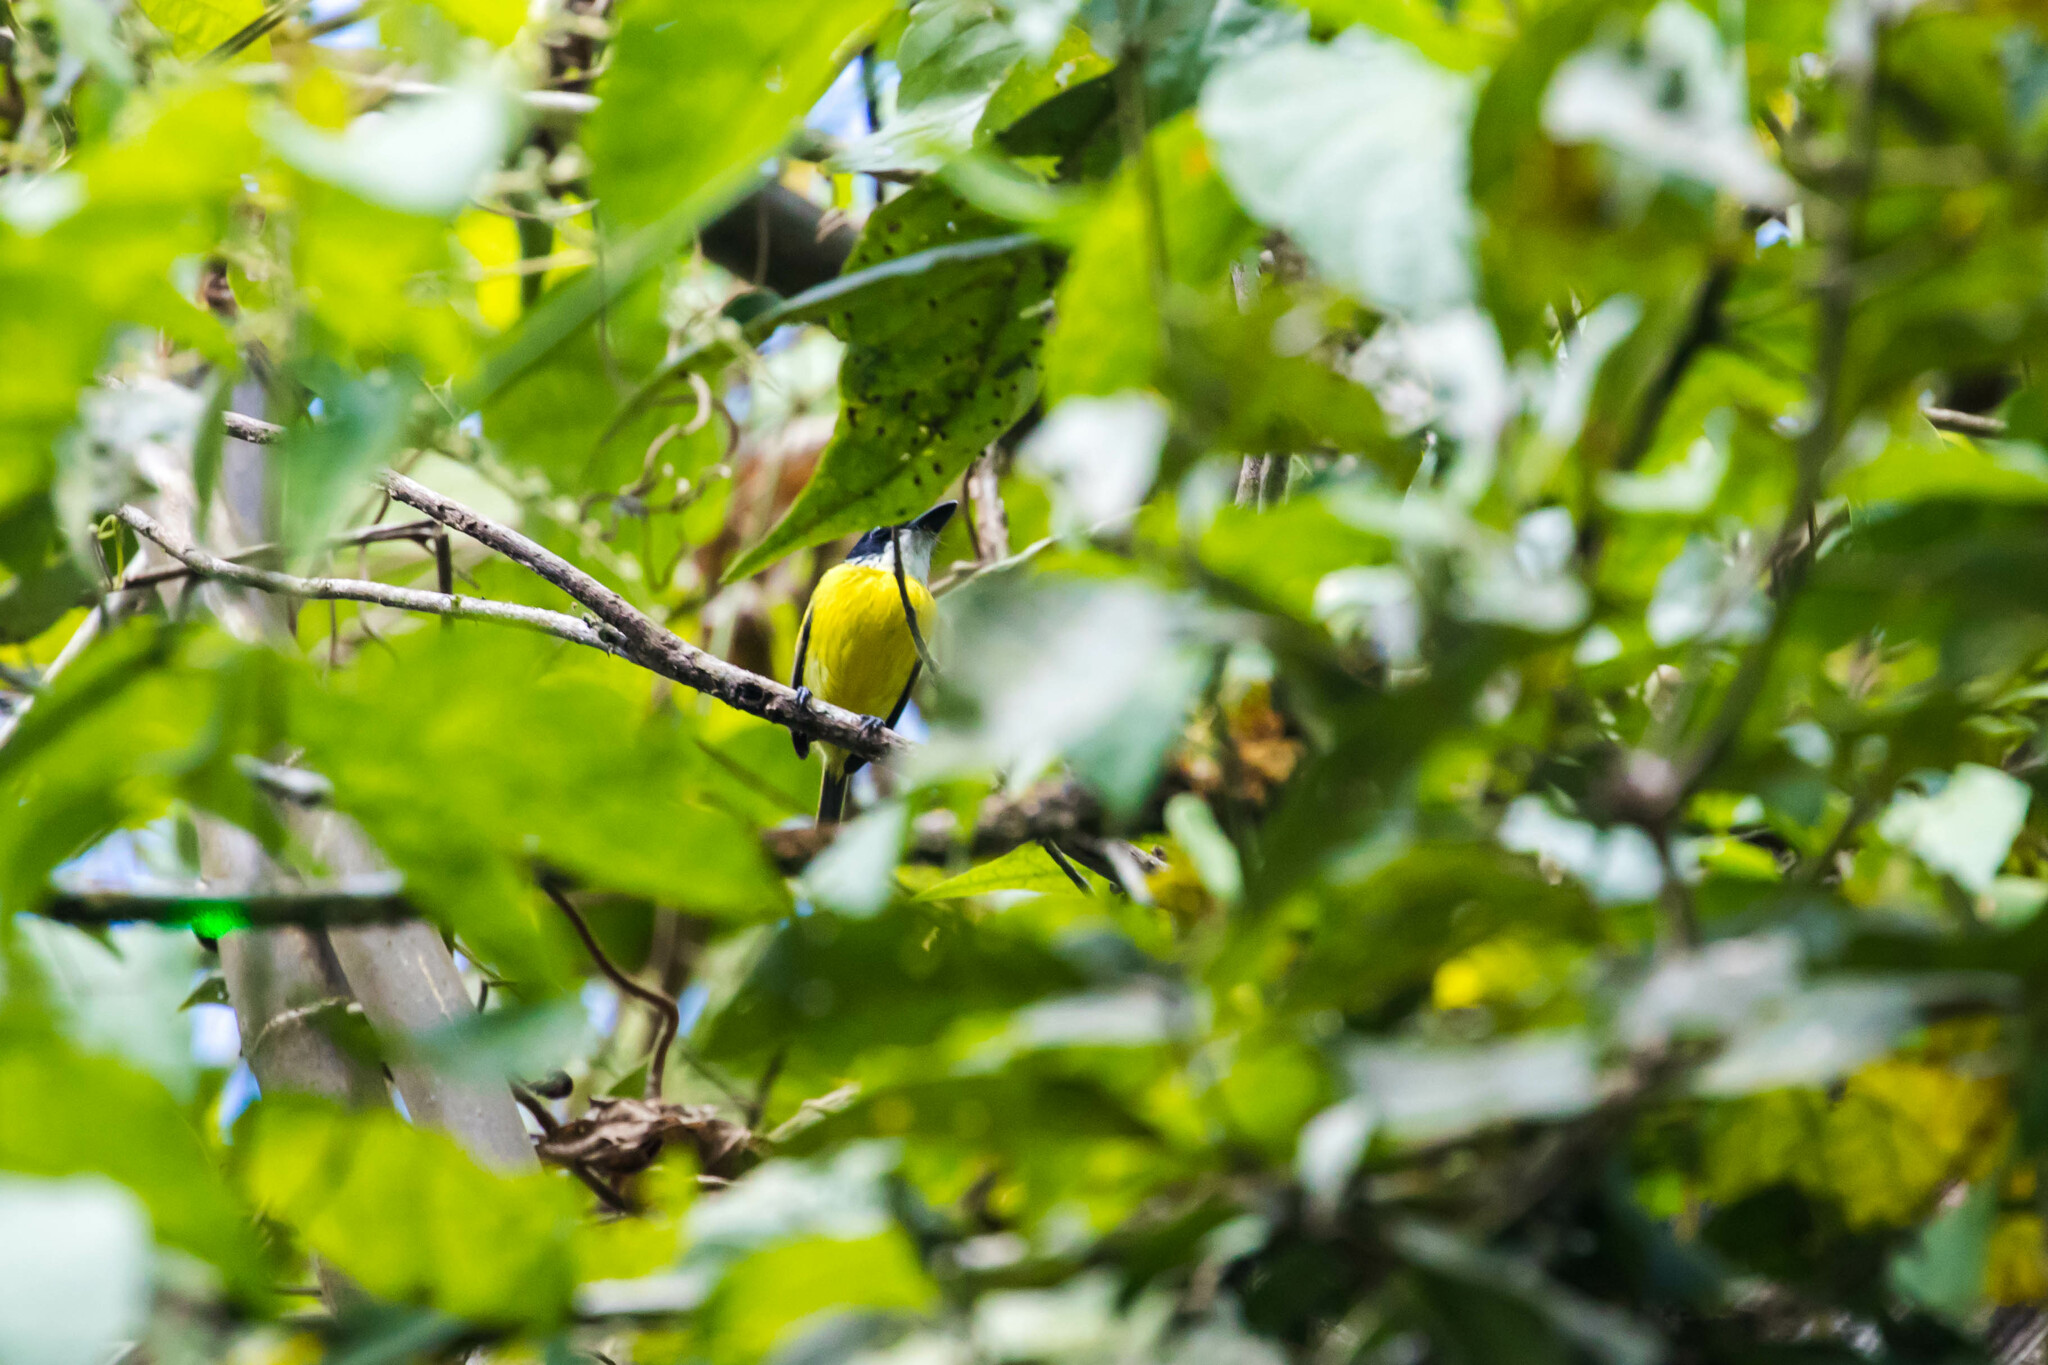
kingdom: Animalia
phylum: Chordata
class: Aves
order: Passeriformes
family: Tyrannidae
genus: Todirostrum
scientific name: Todirostrum nigriceps
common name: Black-headed tody-flycatcher
